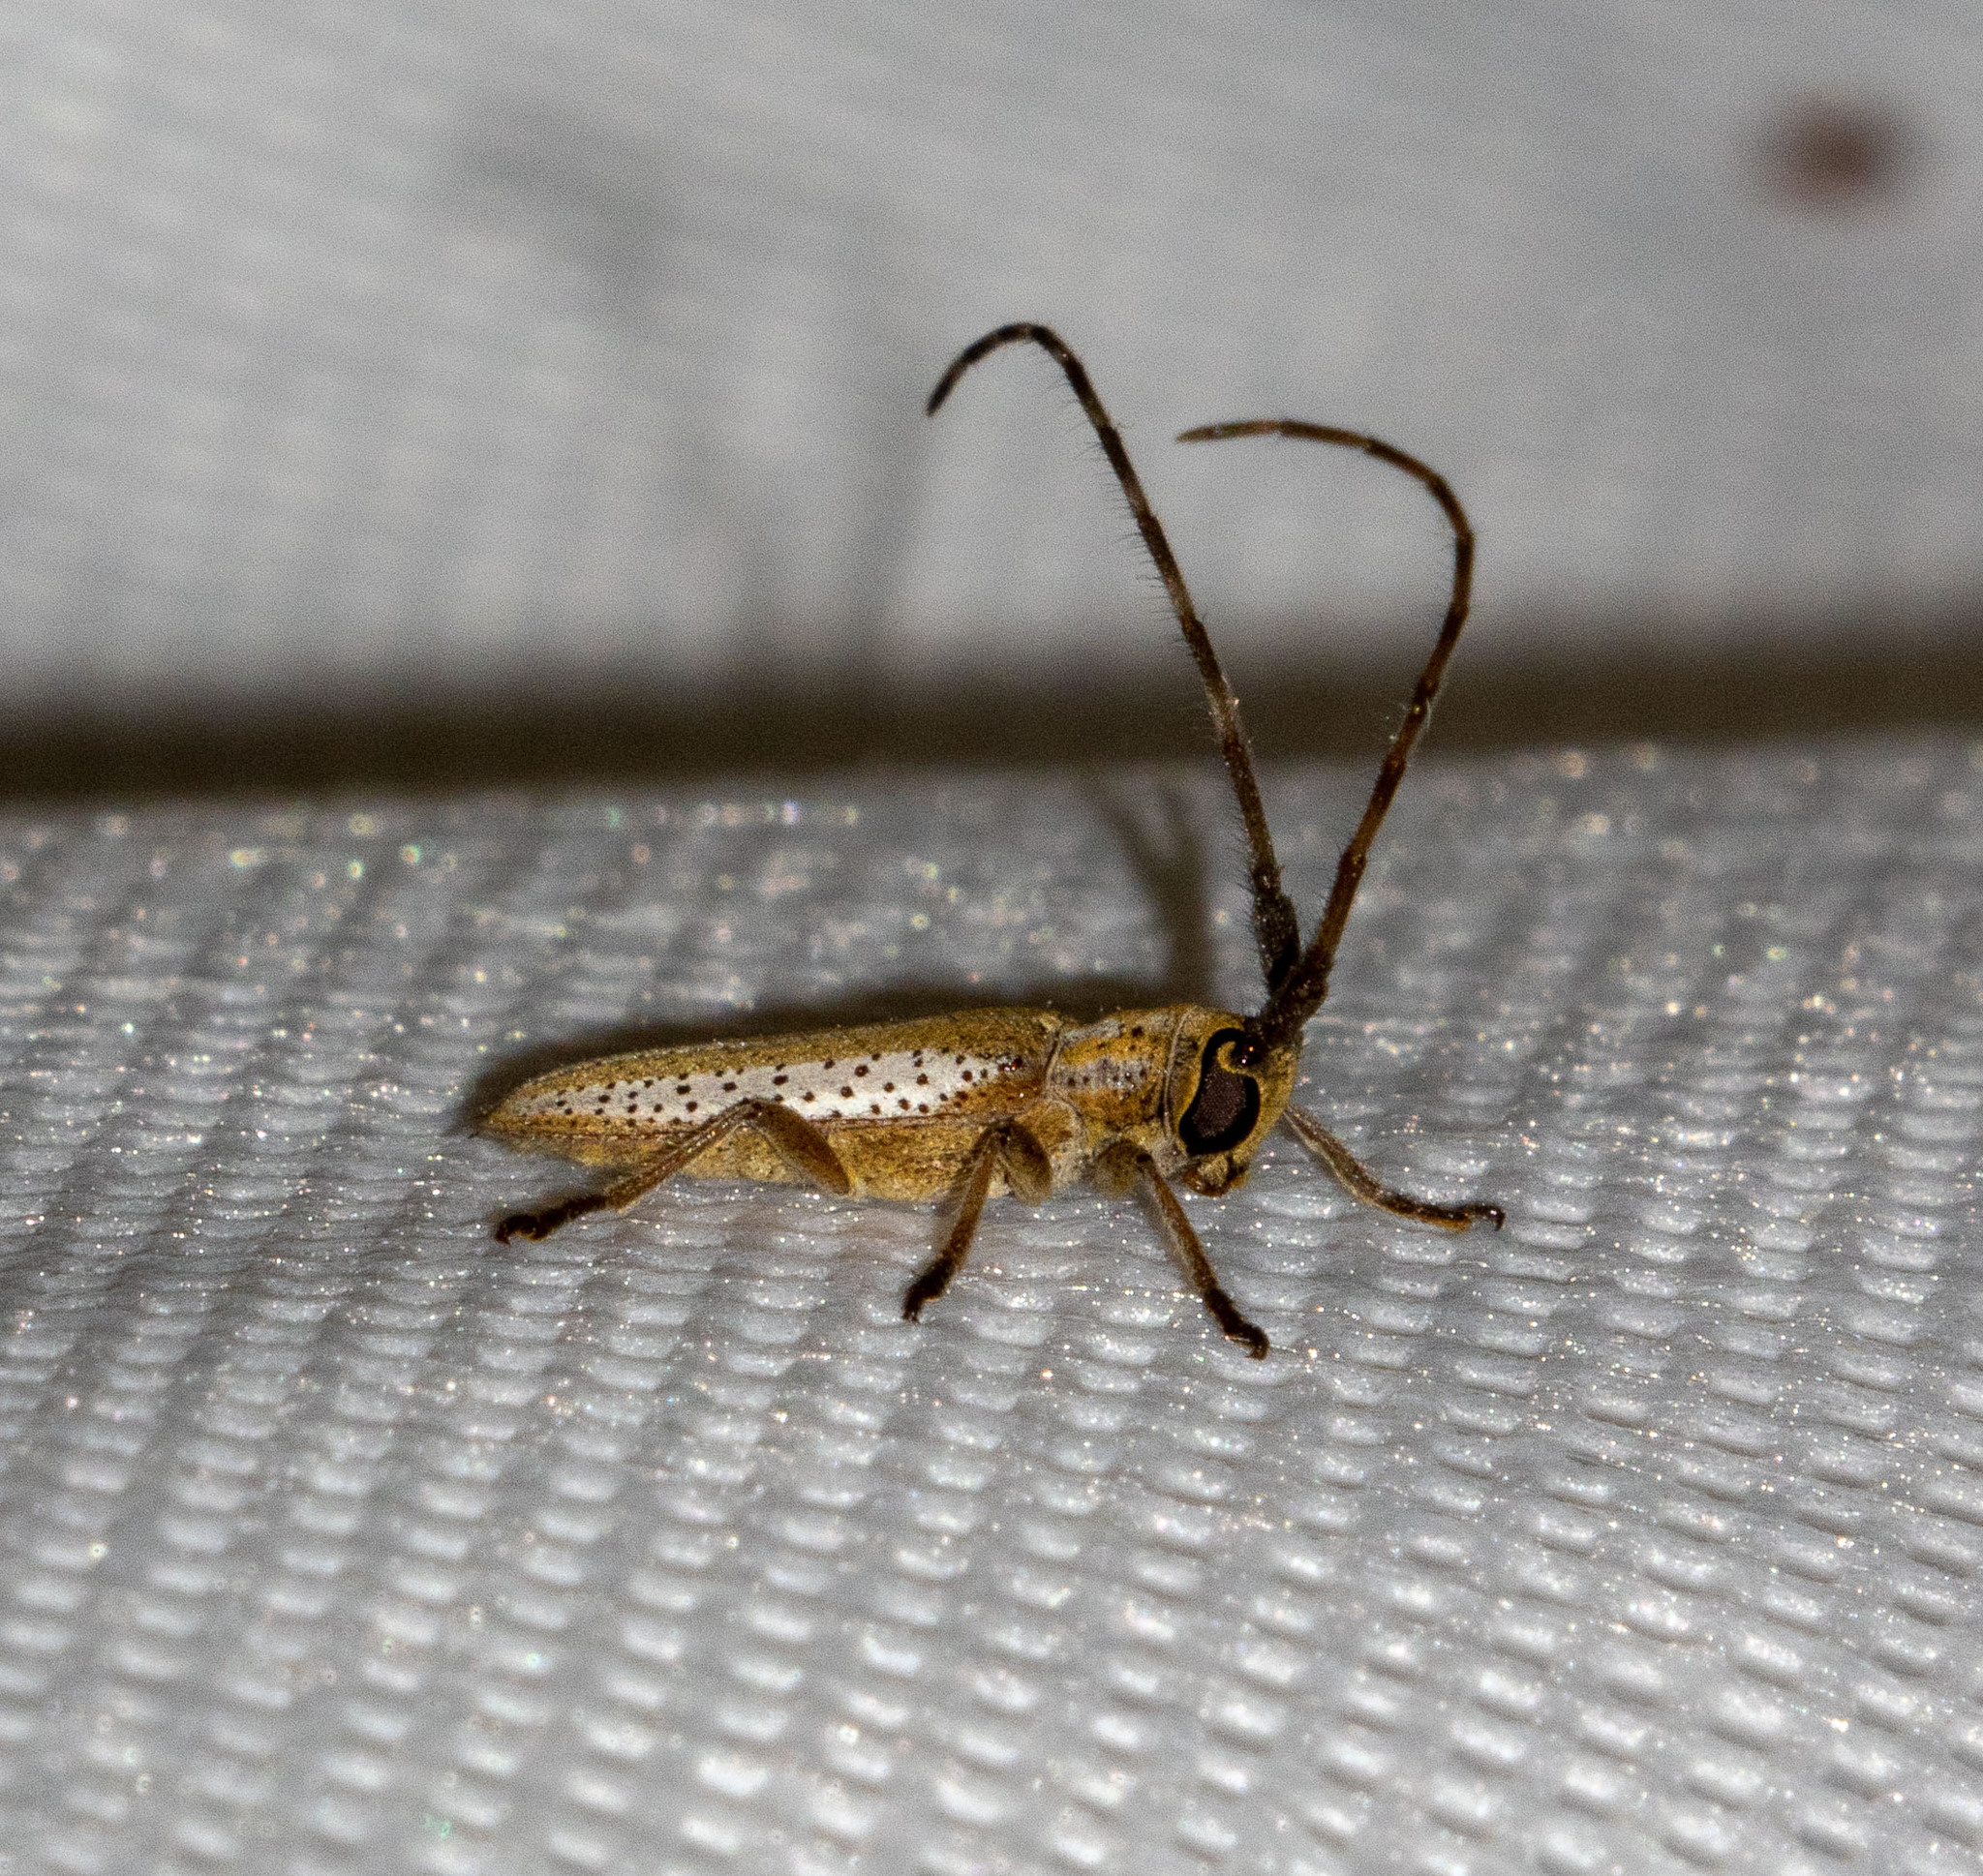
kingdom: Animalia
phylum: Arthropoda
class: Insecta
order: Coleoptera
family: Cerambycidae
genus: Holoaerenica
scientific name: Holoaerenica multipunctata
